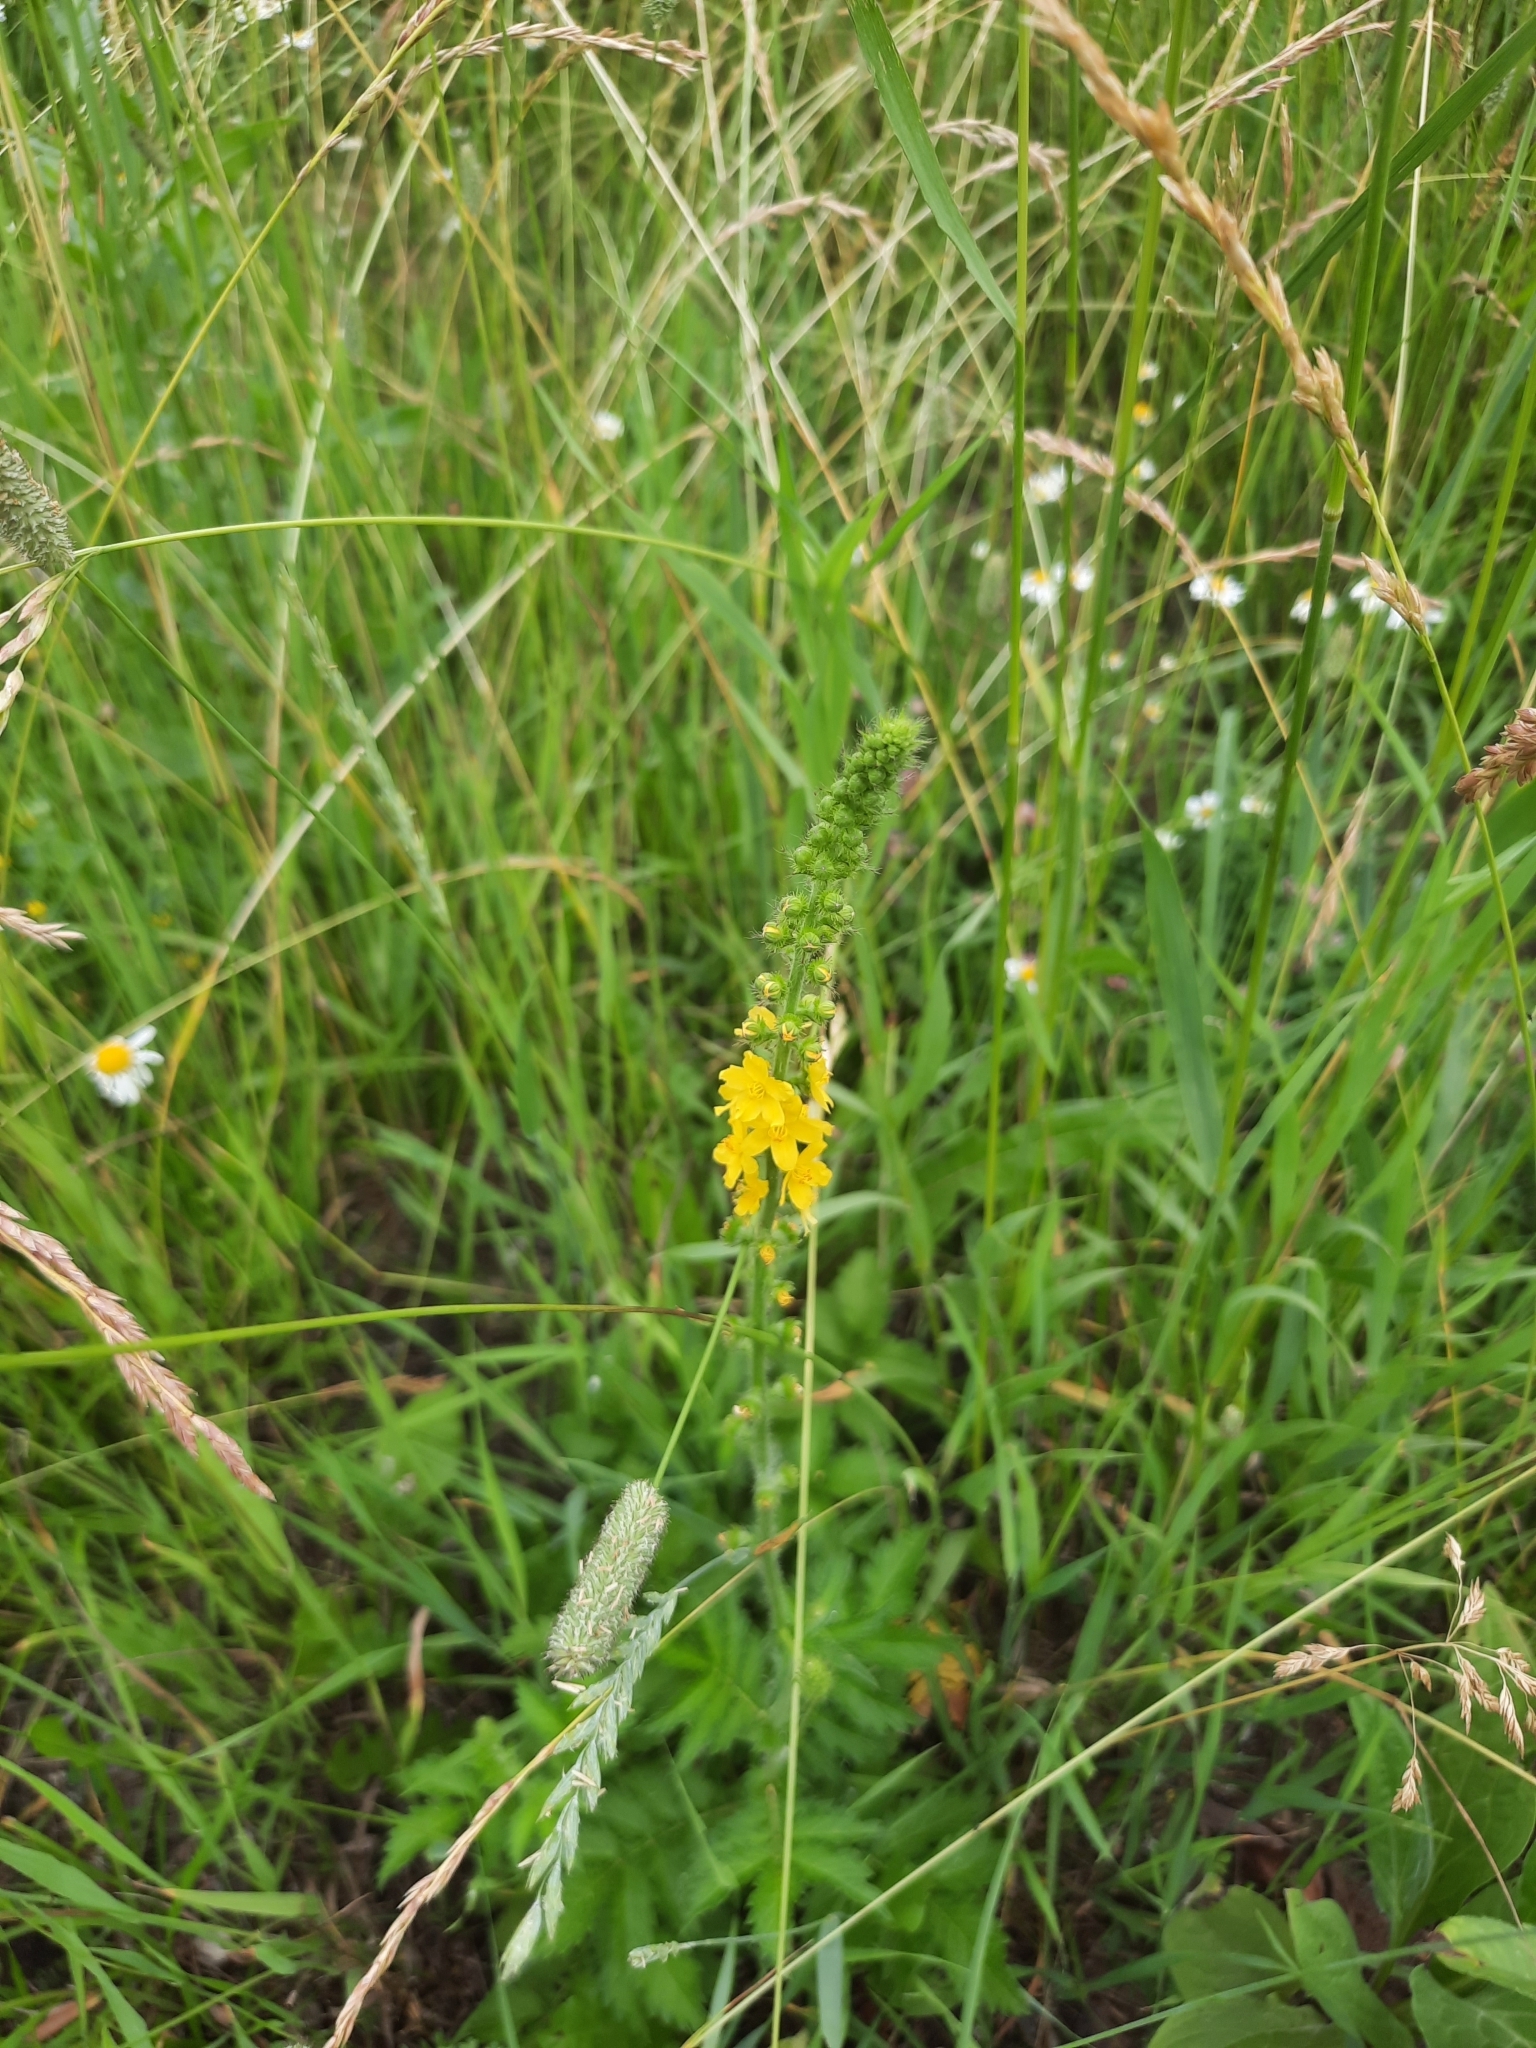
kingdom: Plantae
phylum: Tracheophyta
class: Magnoliopsida
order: Rosales
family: Rosaceae
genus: Agrimonia
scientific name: Agrimonia eupatoria
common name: Agrimony
